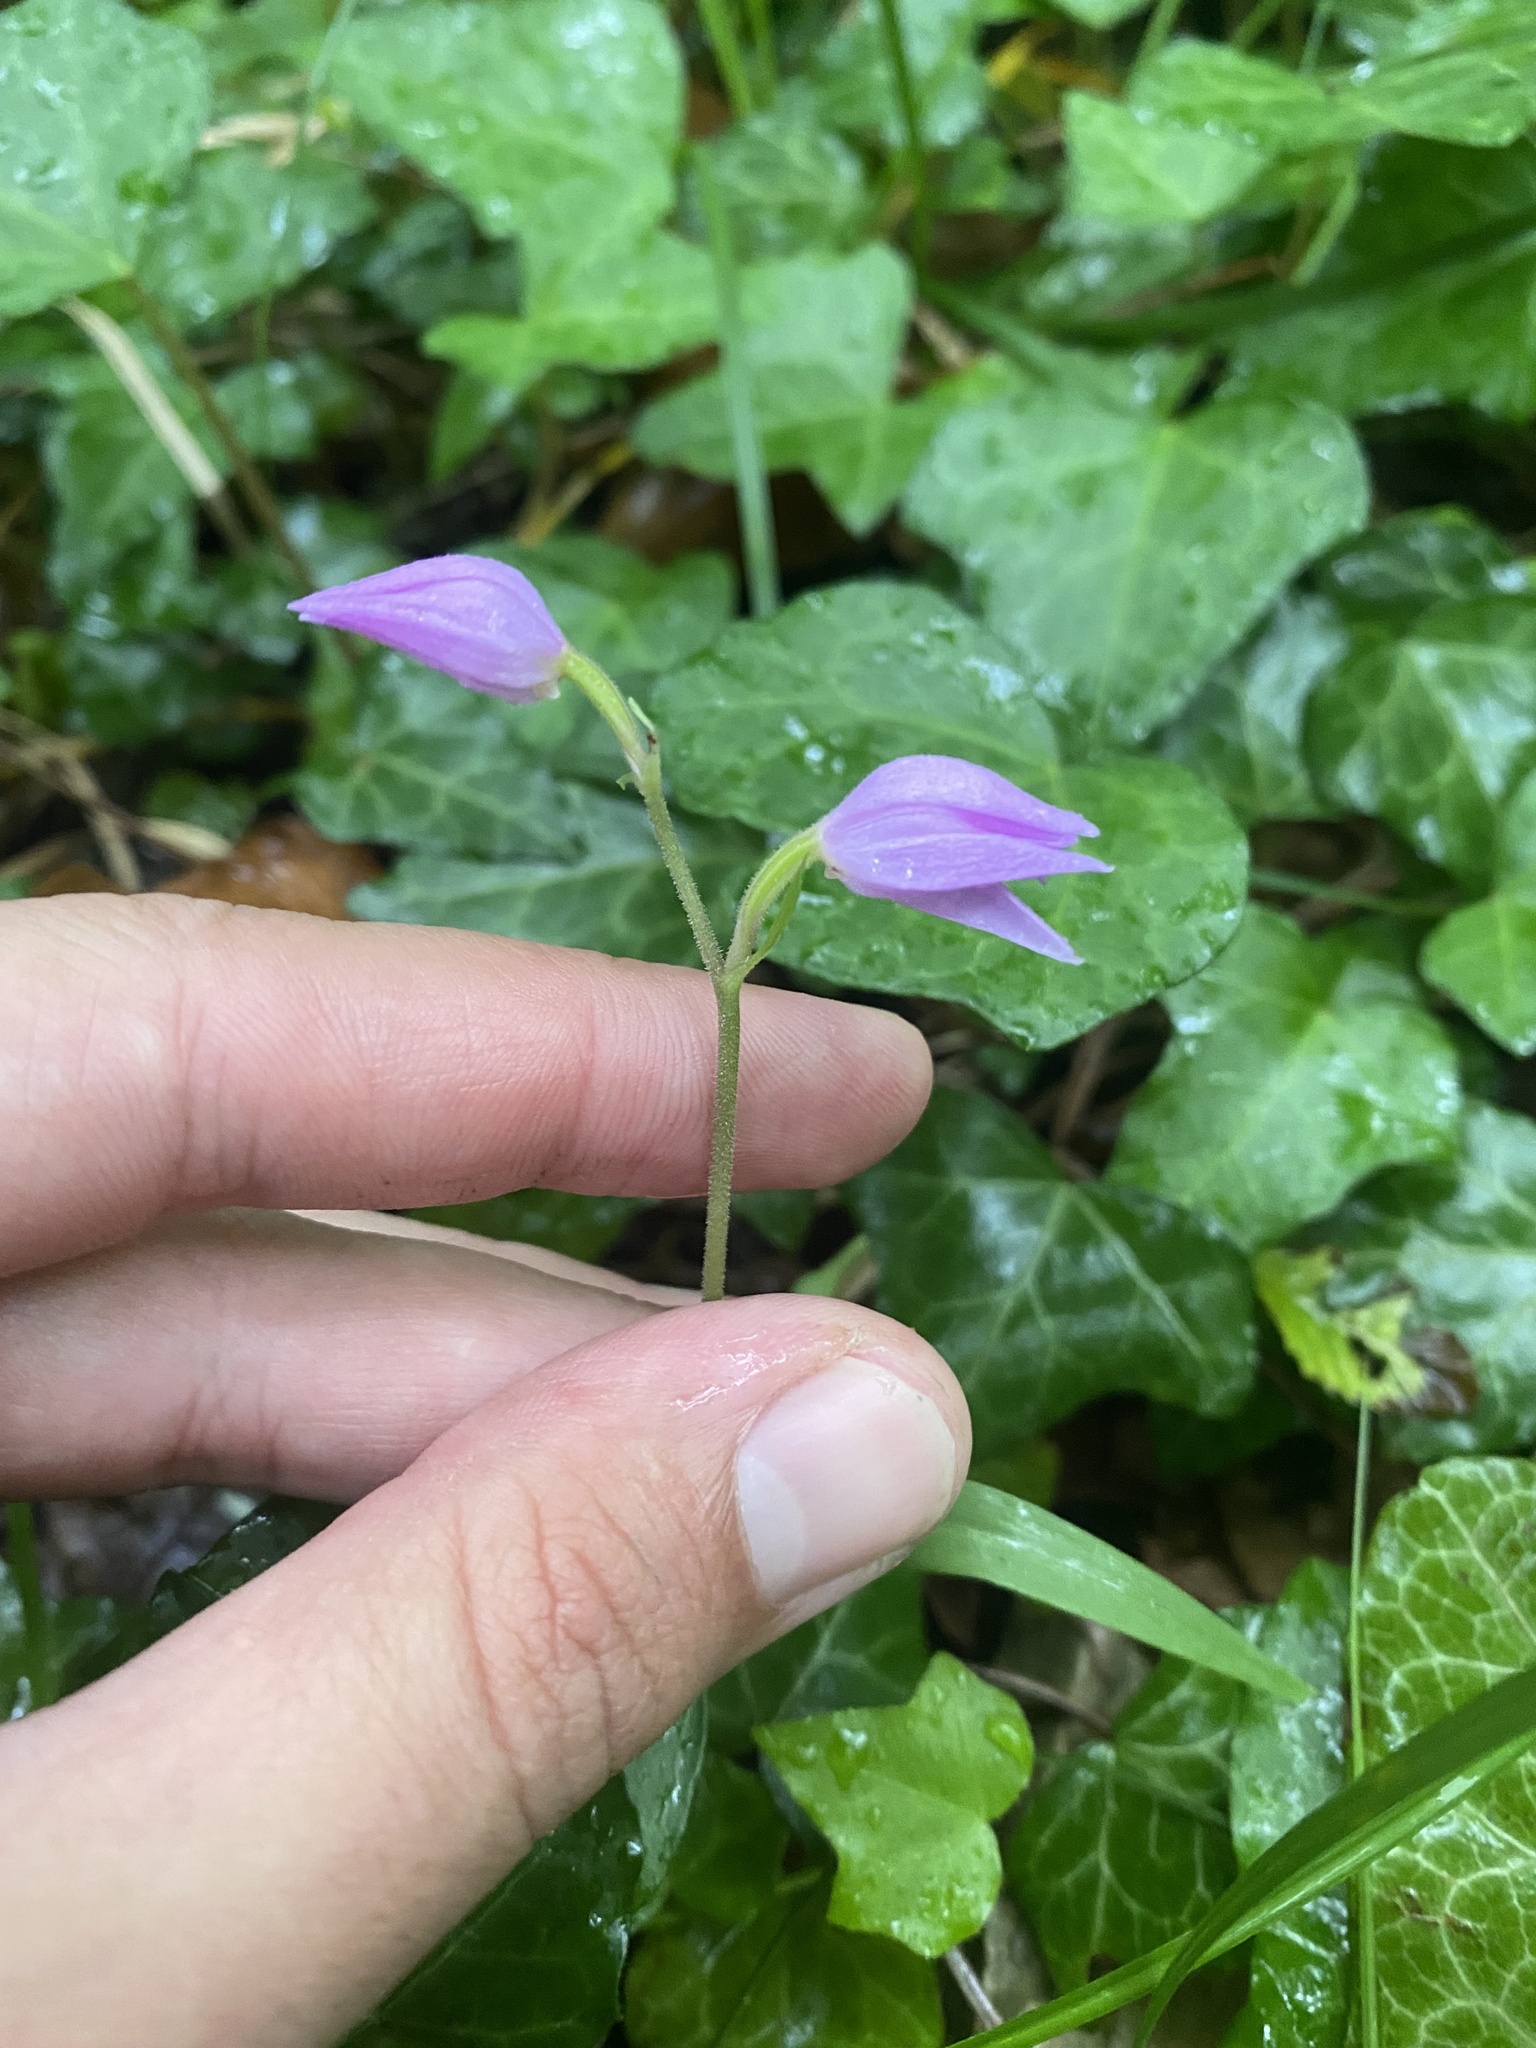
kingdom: Plantae
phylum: Tracheophyta
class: Liliopsida
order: Asparagales
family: Orchidaceae
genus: Cephalanthera
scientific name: Cephalanthera rubra
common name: Red helleborine
